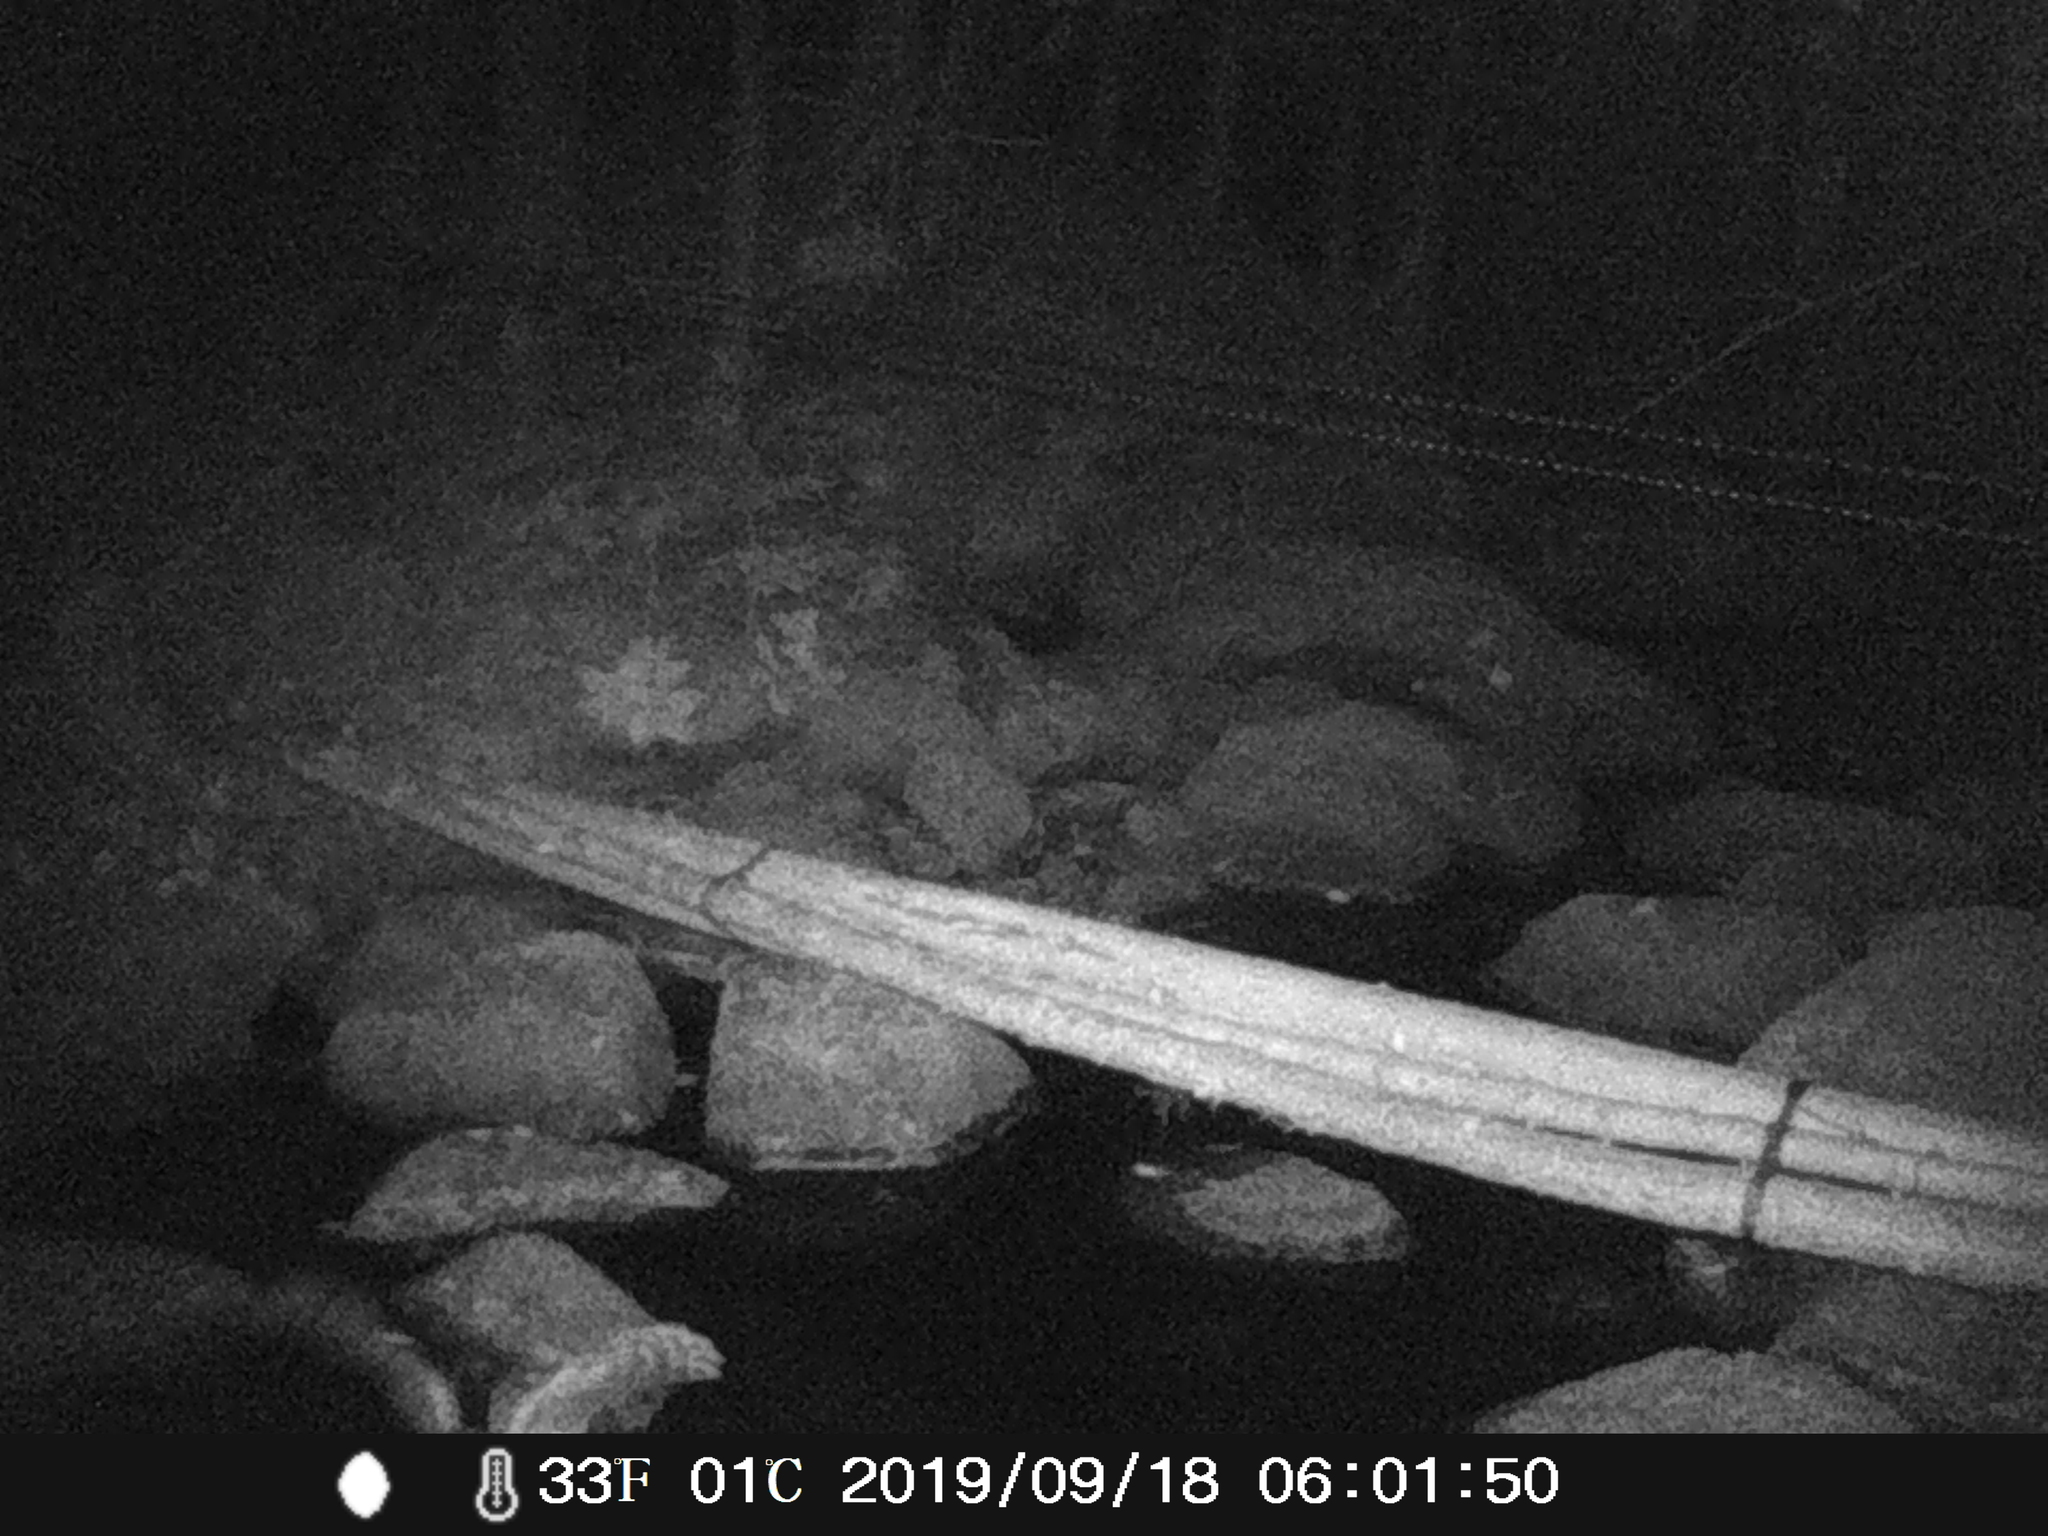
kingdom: Animalia
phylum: Chordata
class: Aves
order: Strigiformes
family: Strigidae
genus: Strix
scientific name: Strix varia
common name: Barred owl
